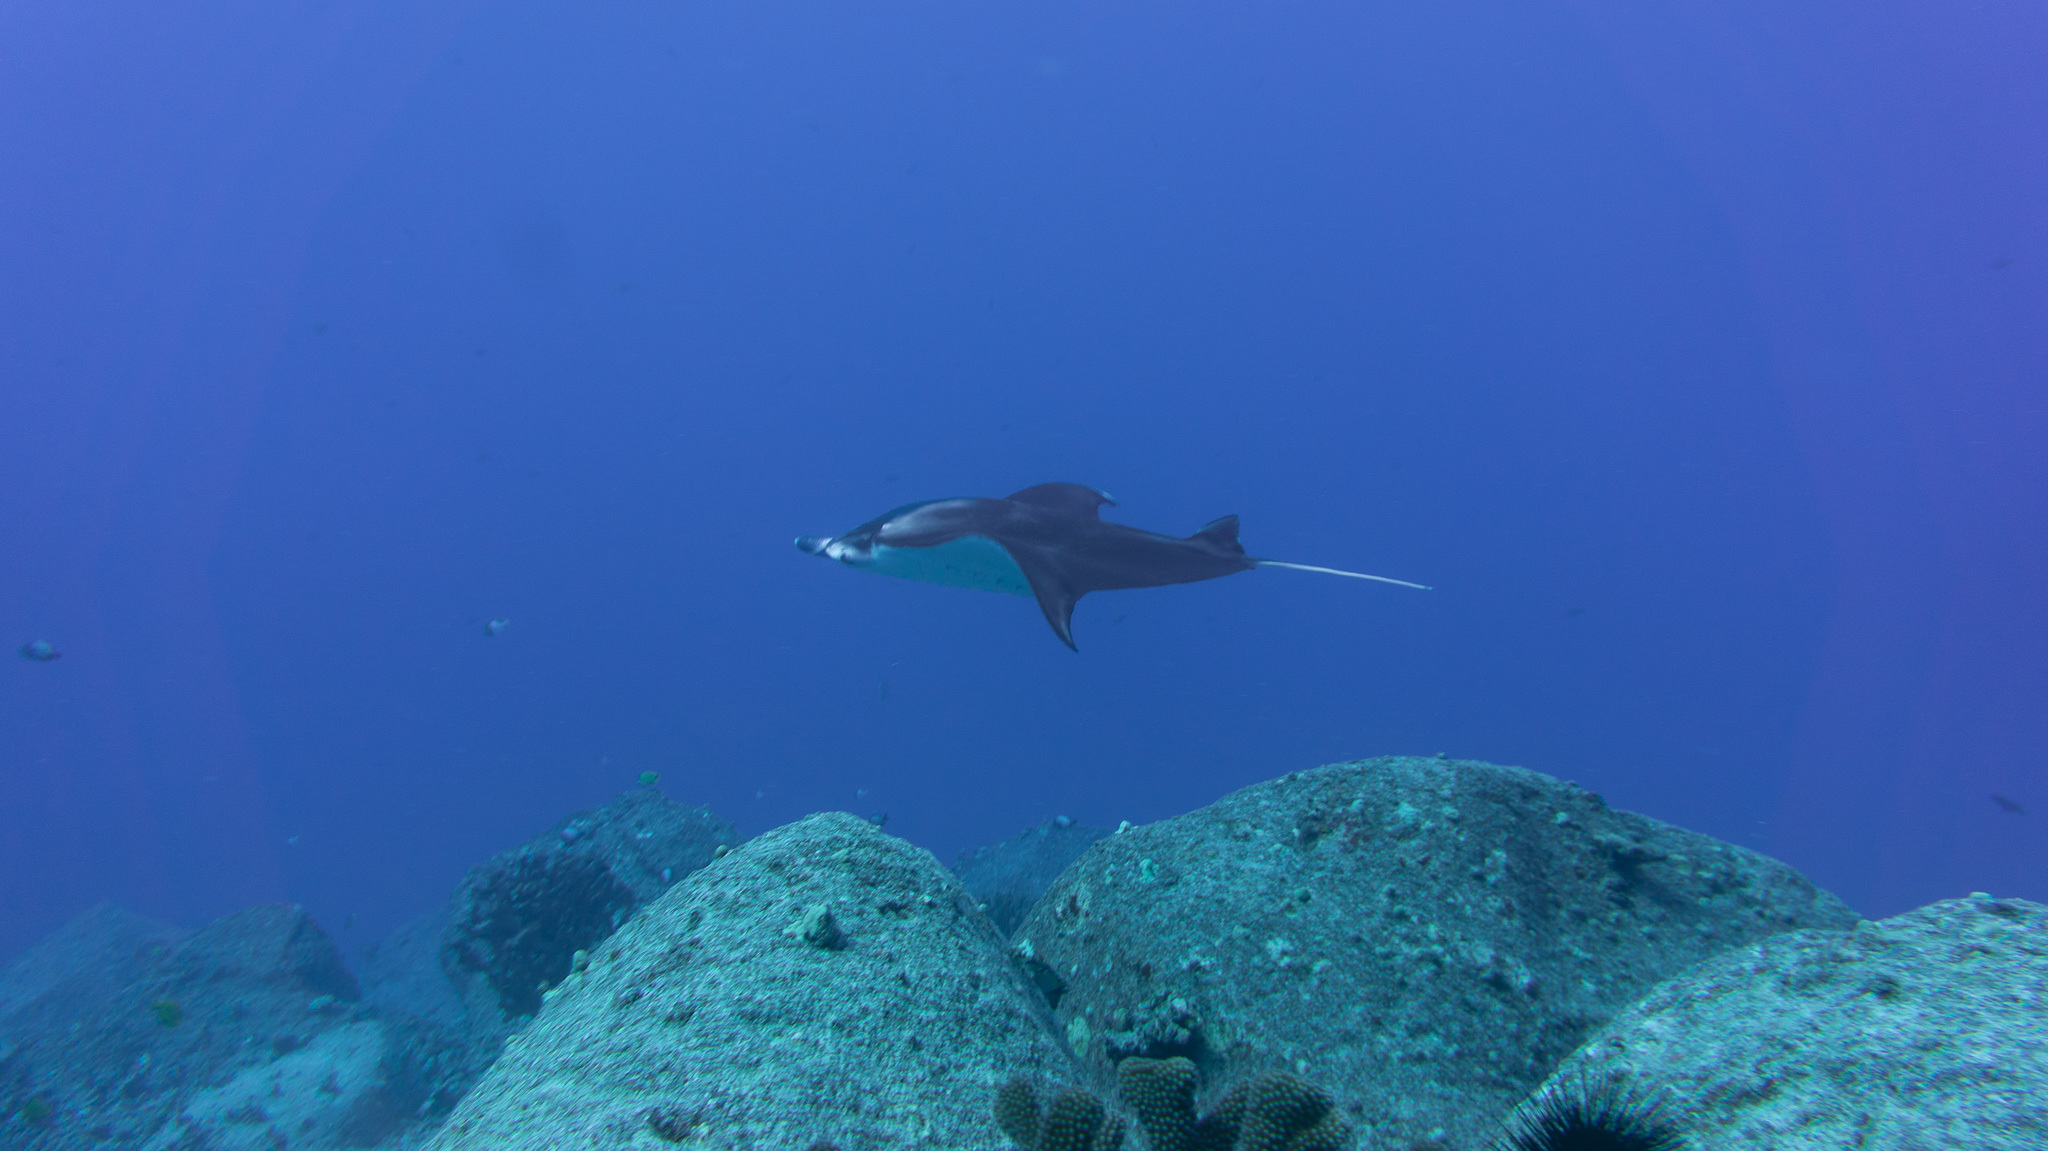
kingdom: Animalia
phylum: Chordata
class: Elasmobranchii
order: Myliobatiformes
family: Myliobatidae
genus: Mobula
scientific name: Mobula alfredi
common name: Reef manta ray
